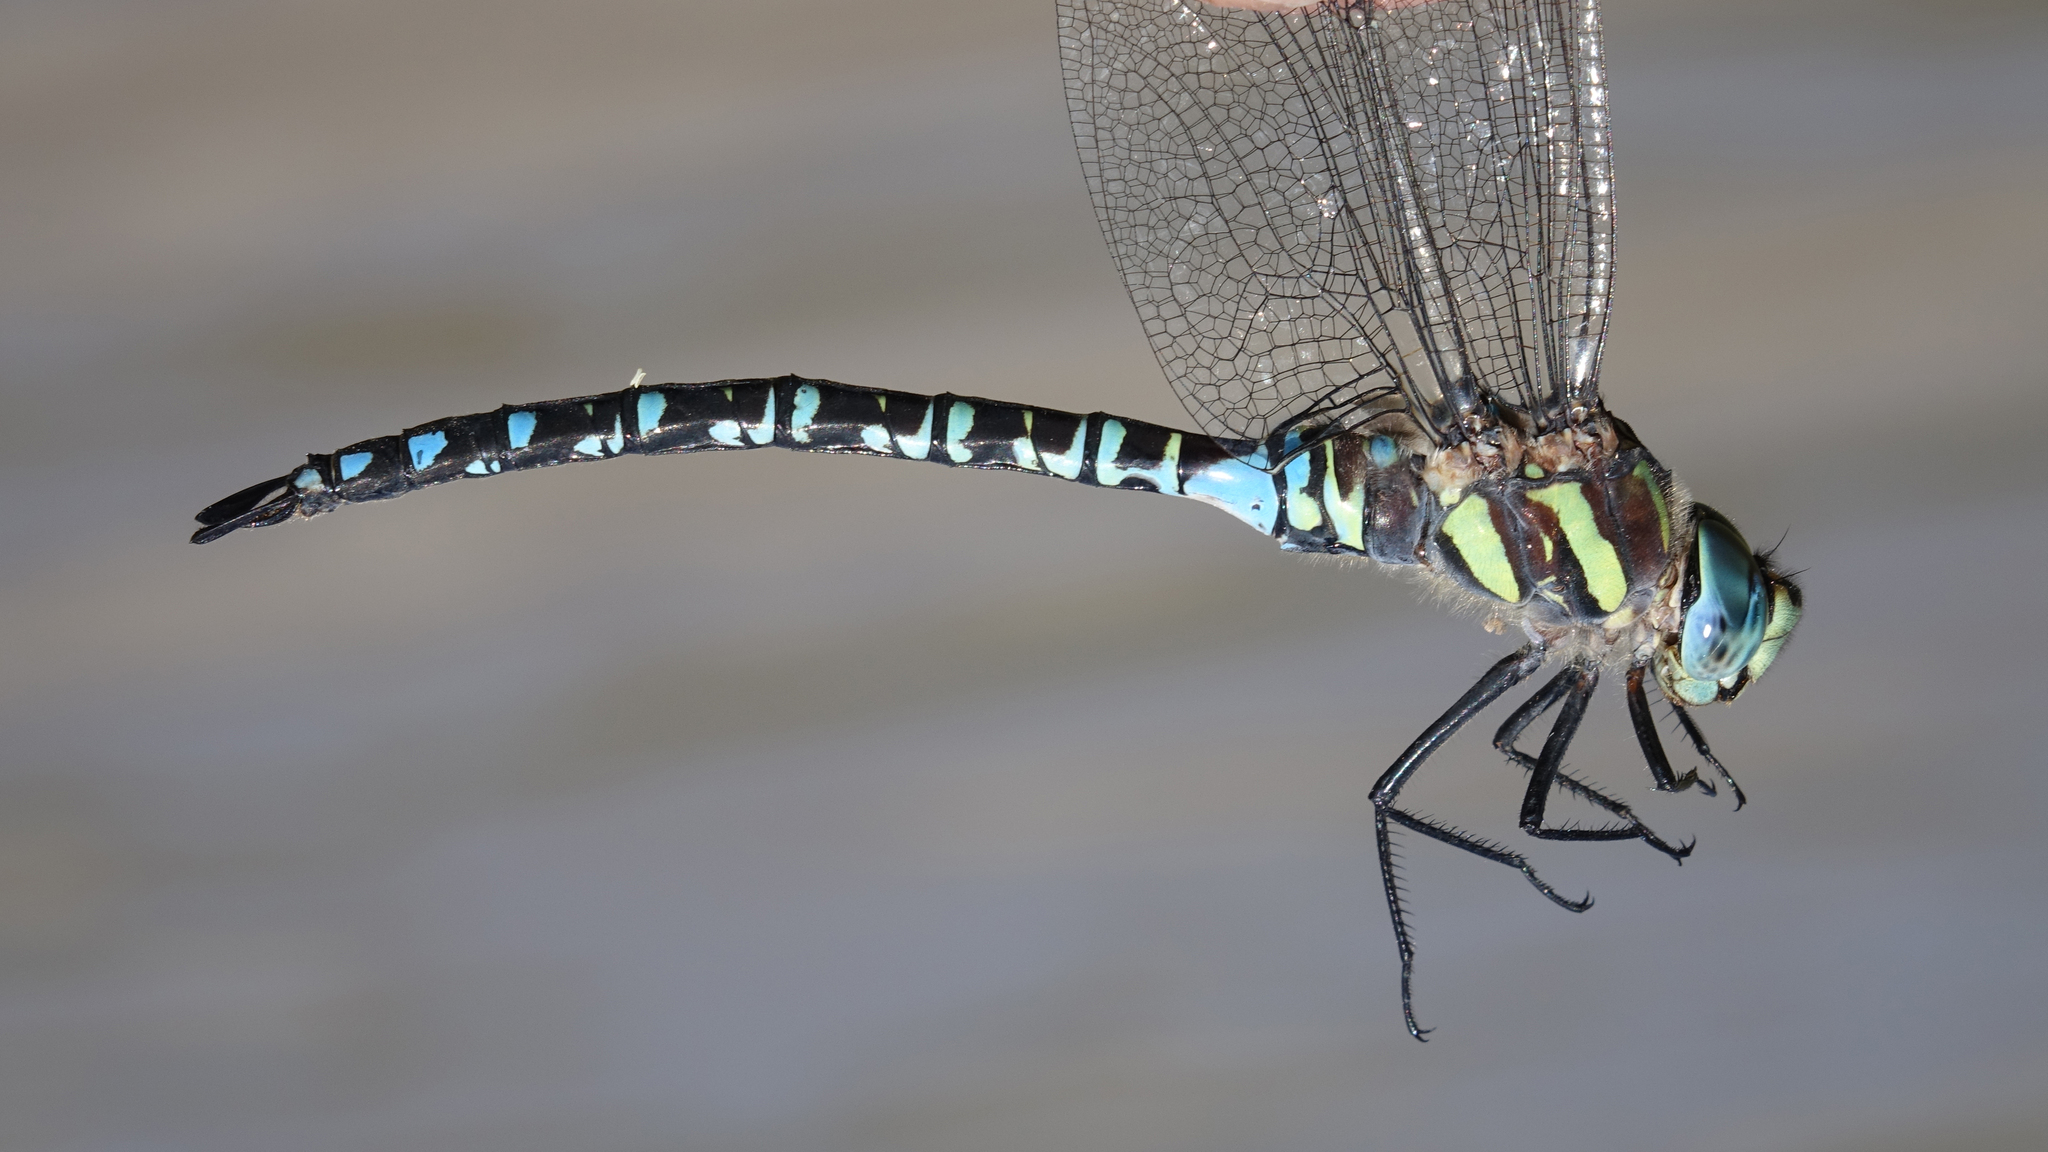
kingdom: Animalia
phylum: Arthropoda
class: Insecta
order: Odonata
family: Aeshnidae
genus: Aeshna
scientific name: Aeshna crenata
